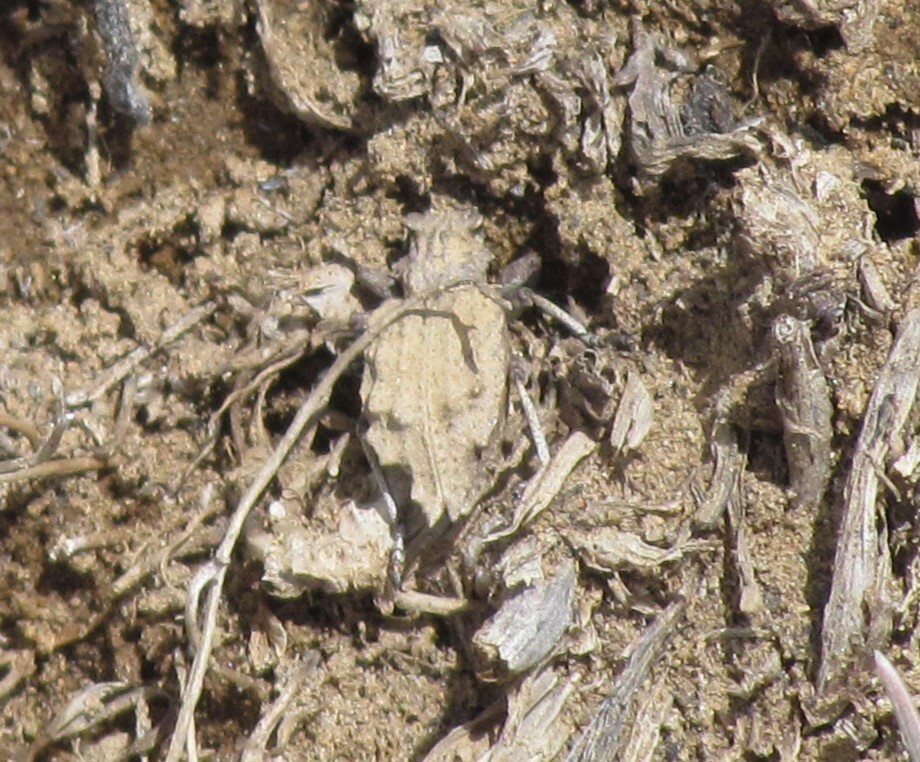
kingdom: Animalia
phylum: Arthropoda
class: Insecta
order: Coleoptera
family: Curculionidae
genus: Sysciophthalmus
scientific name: Sysciophthalmus bruchi
